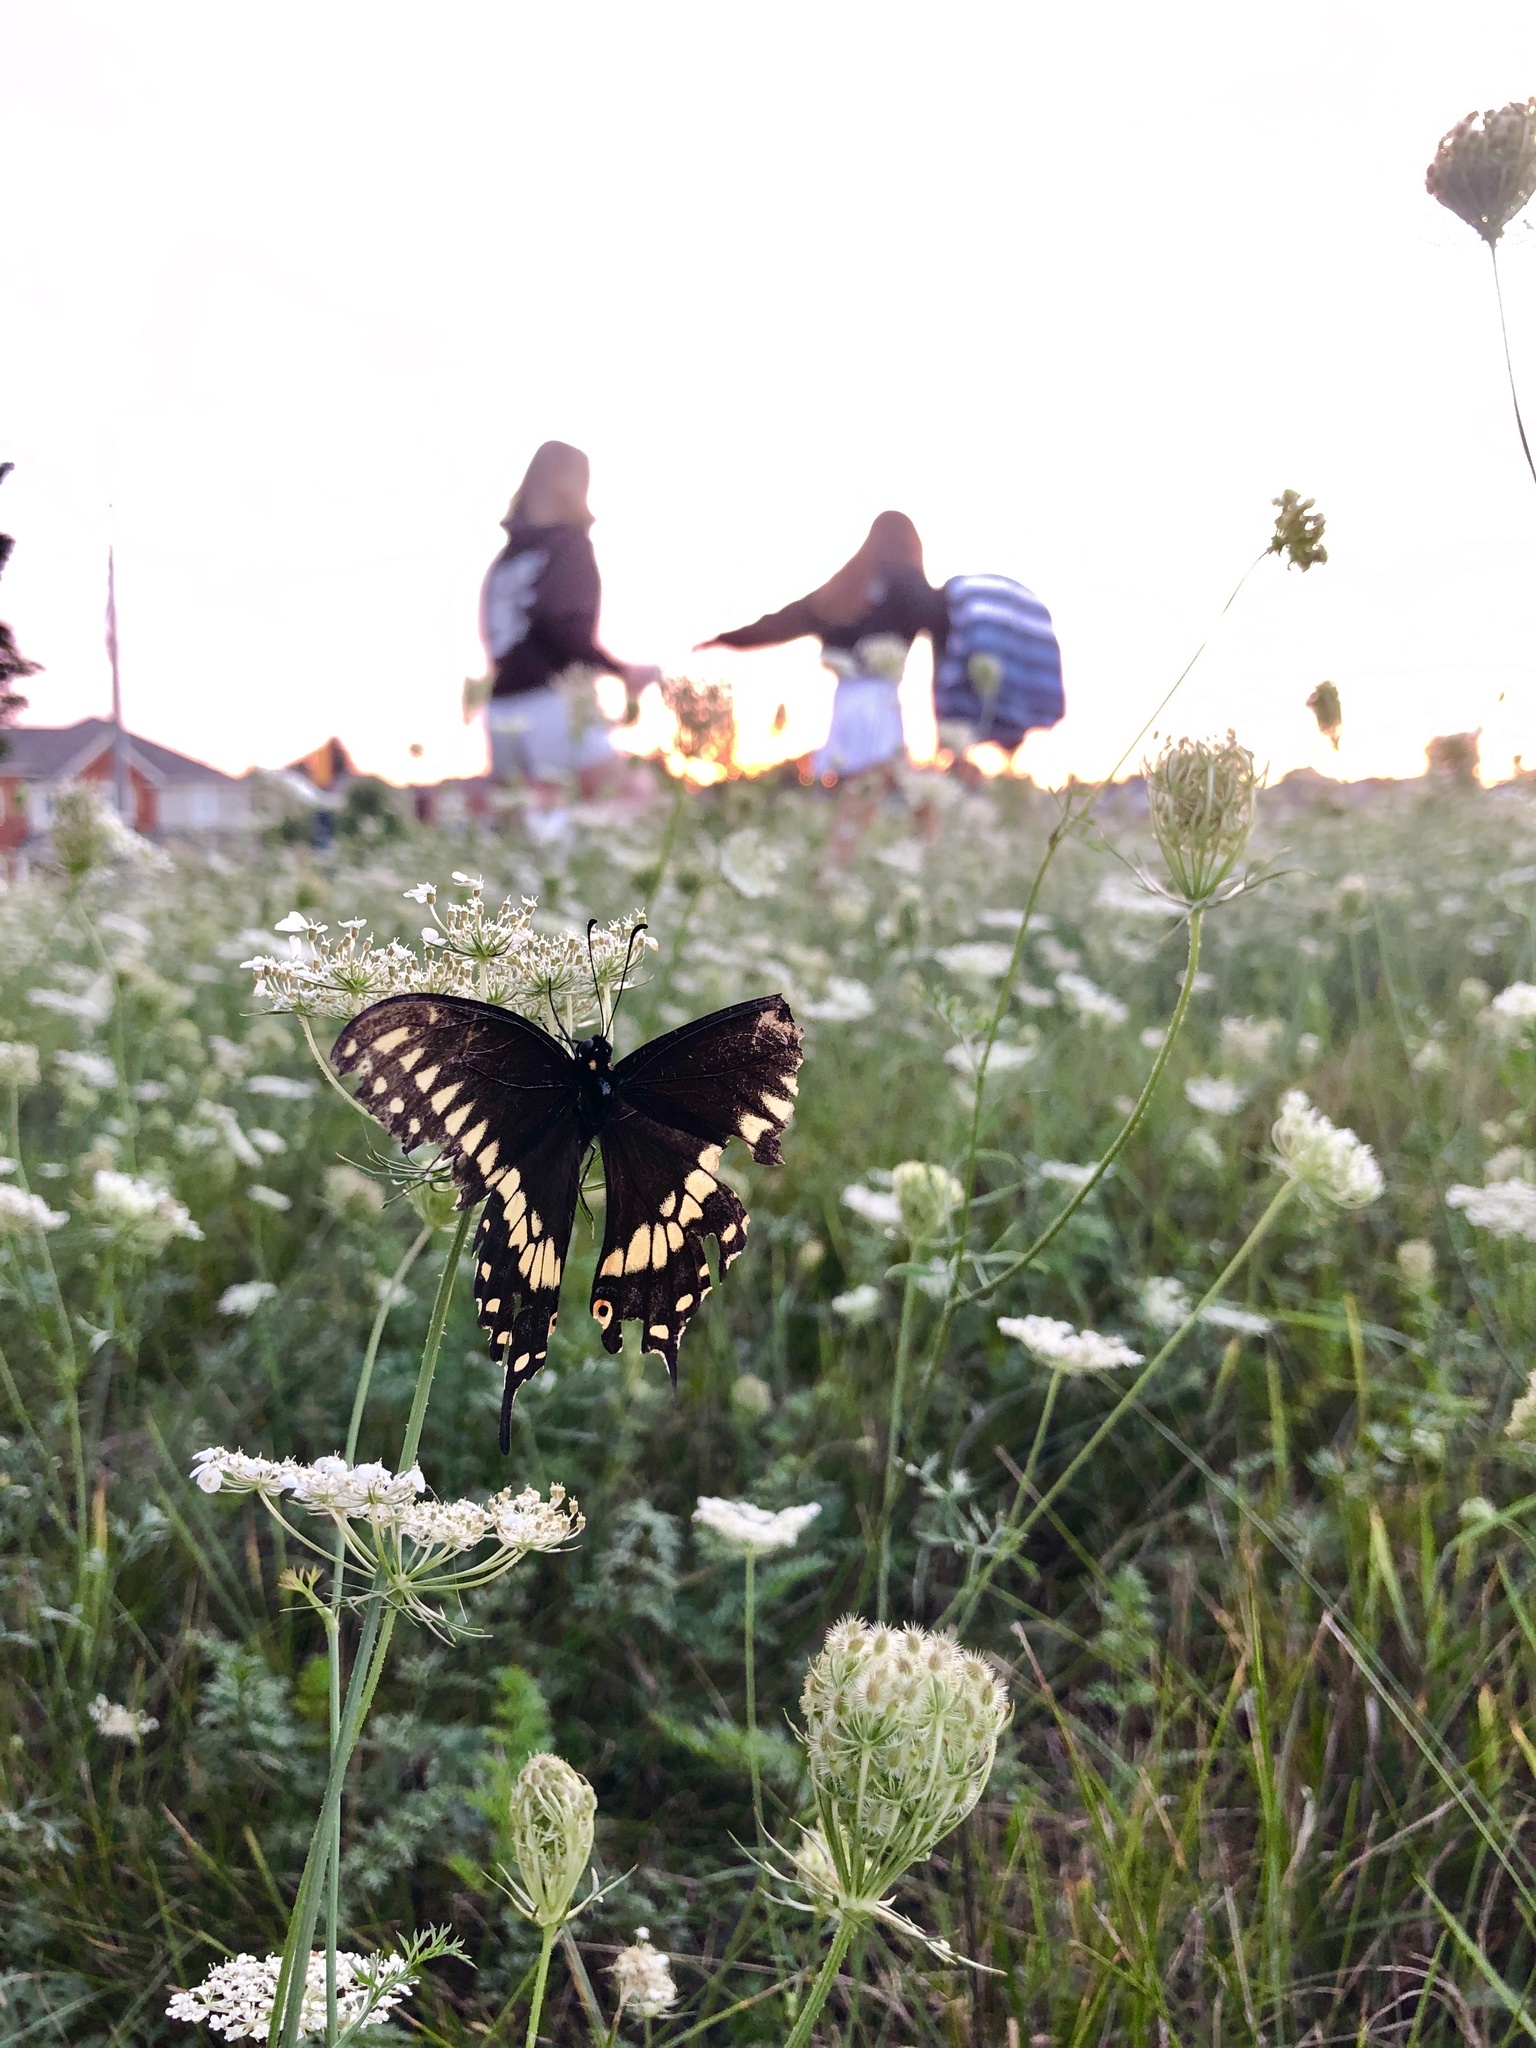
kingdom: Animalia
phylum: Arthropoda
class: Insecta
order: Lepidoptera
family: Papilionidae
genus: Papilio
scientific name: Papilio polyxenes
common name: Black swallowtail
